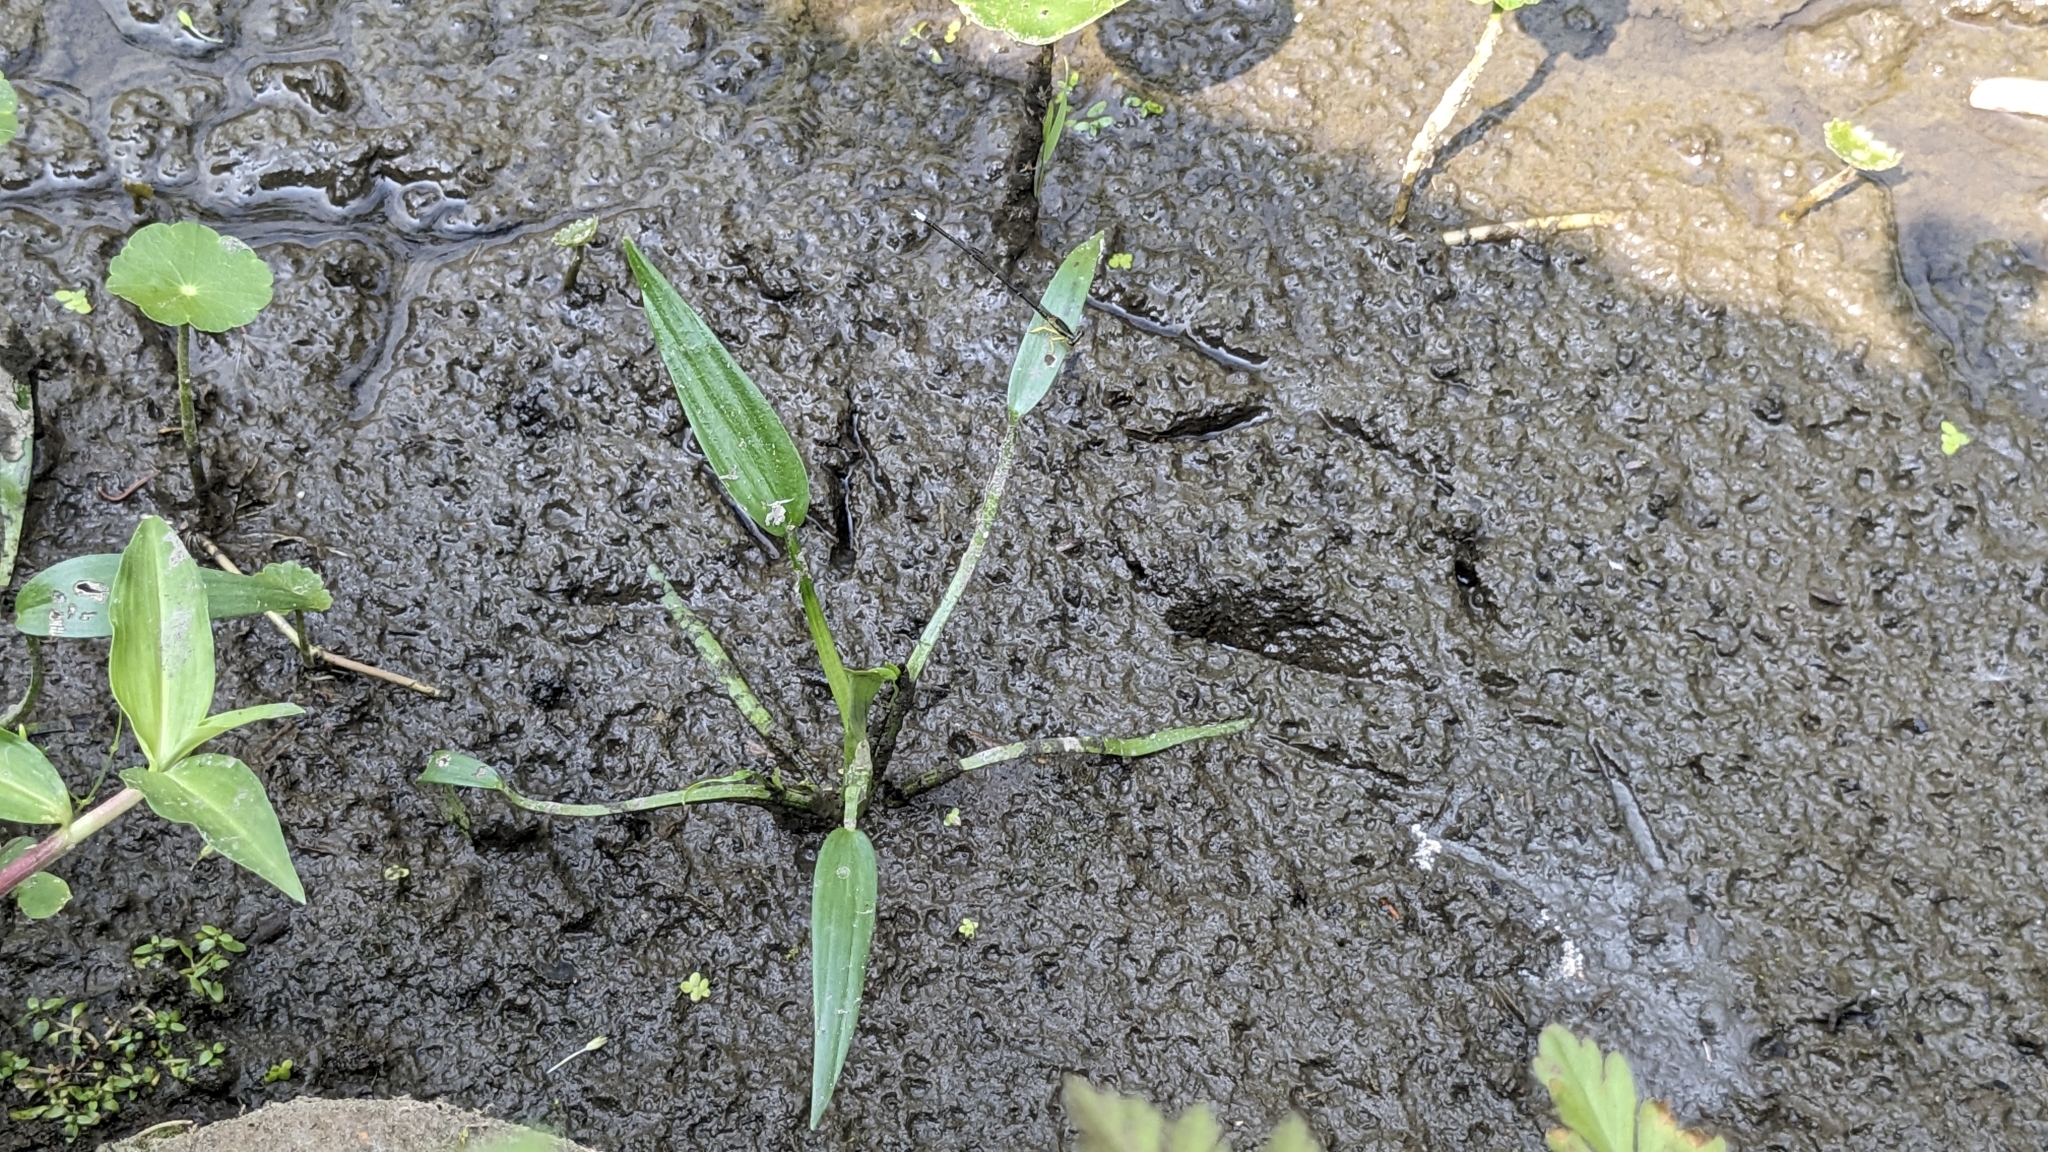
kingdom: Plantae
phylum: Tracheophyta
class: Liliopsida
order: Commelinales
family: Pontederiaceae
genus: Pontederia
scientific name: Pontederia vaginalis
